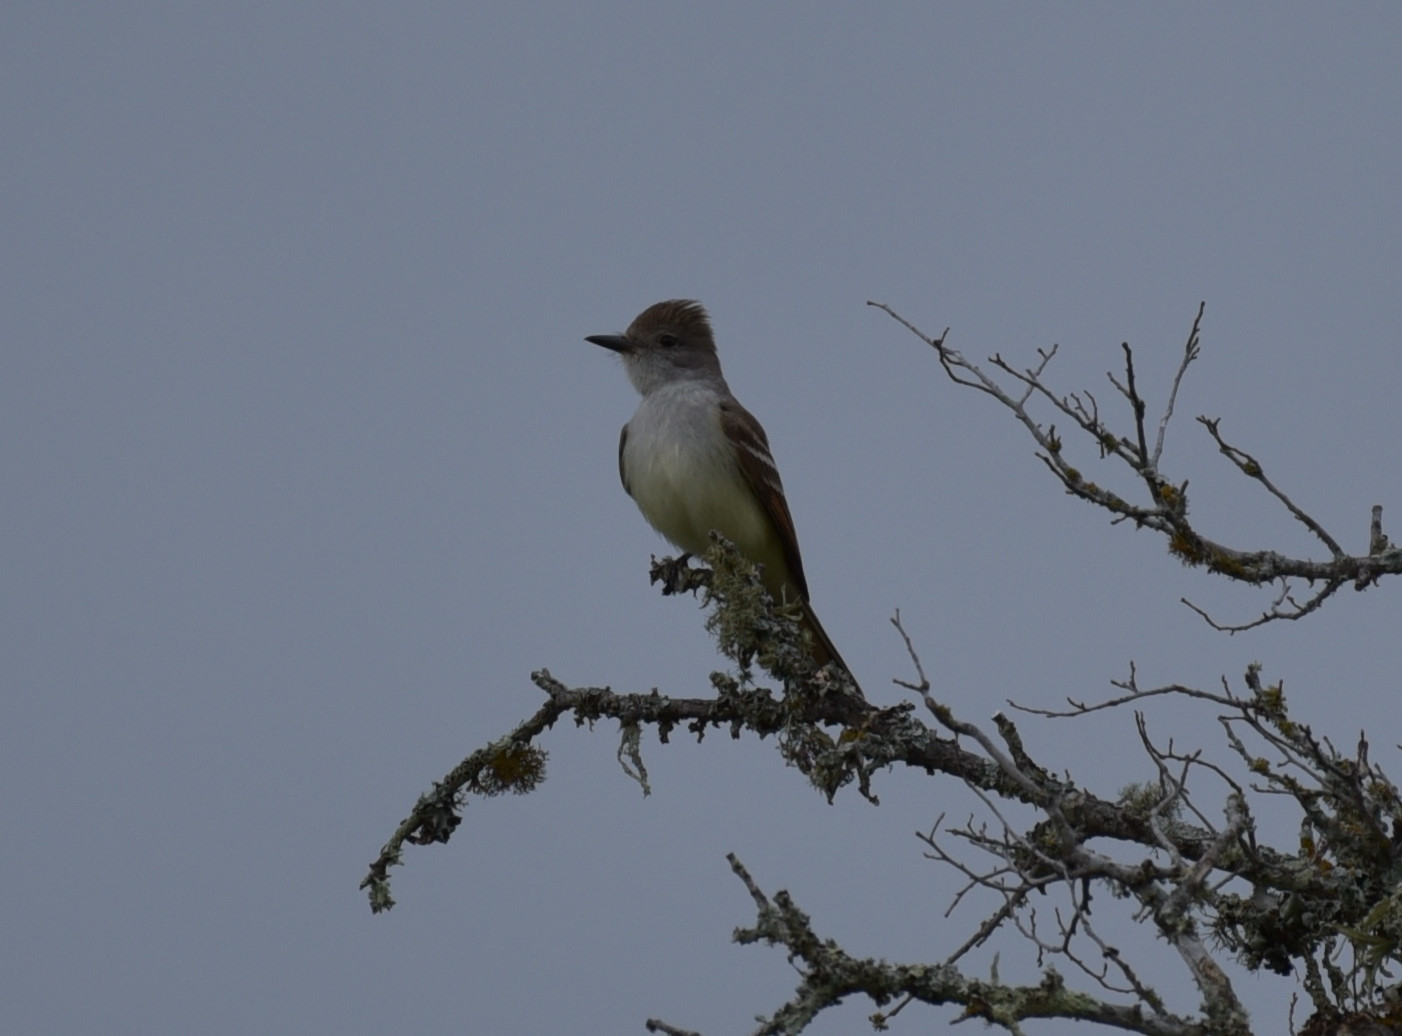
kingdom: Animalia
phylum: Chordata
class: Aves
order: Passeriformes
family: Tyrannidae
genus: Myiarchus
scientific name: Myiarchus cinerascens
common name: Ash-throated flycatcher
